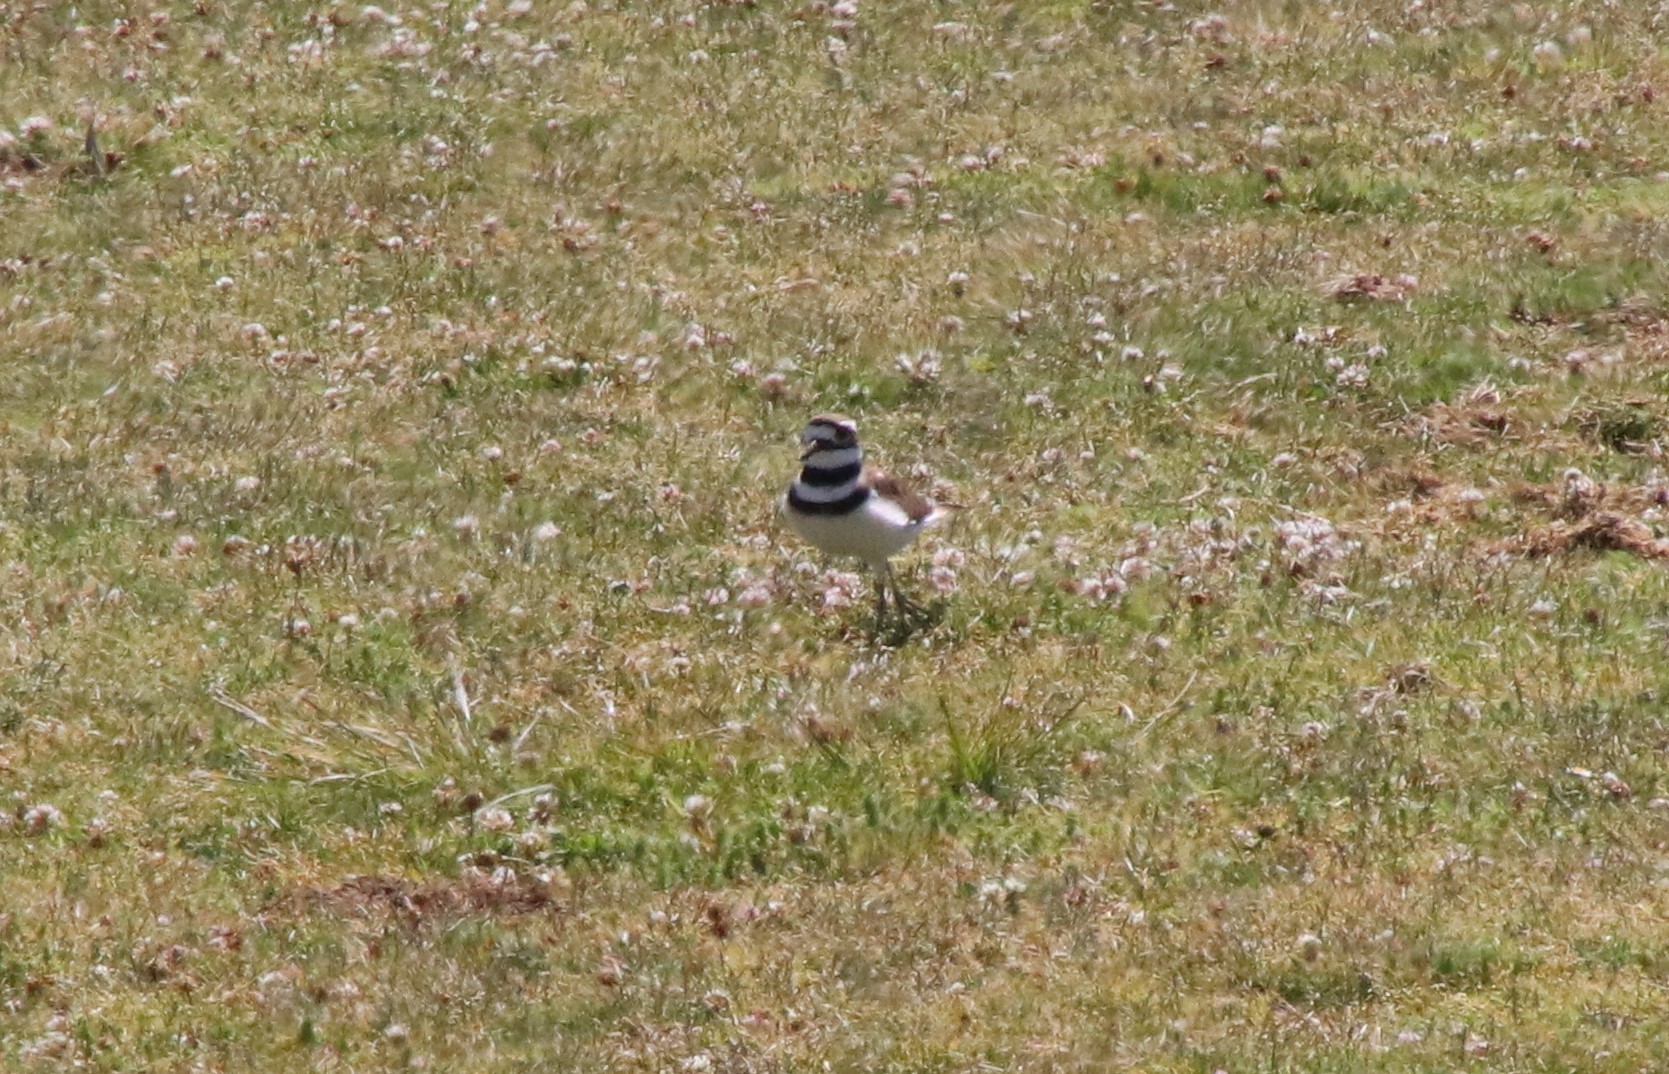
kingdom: Animalia
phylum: Chordata
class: Aves
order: Charadriiformes
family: Charadriidae
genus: Charadrius
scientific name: Charadrius vociferus
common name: Killdeer
